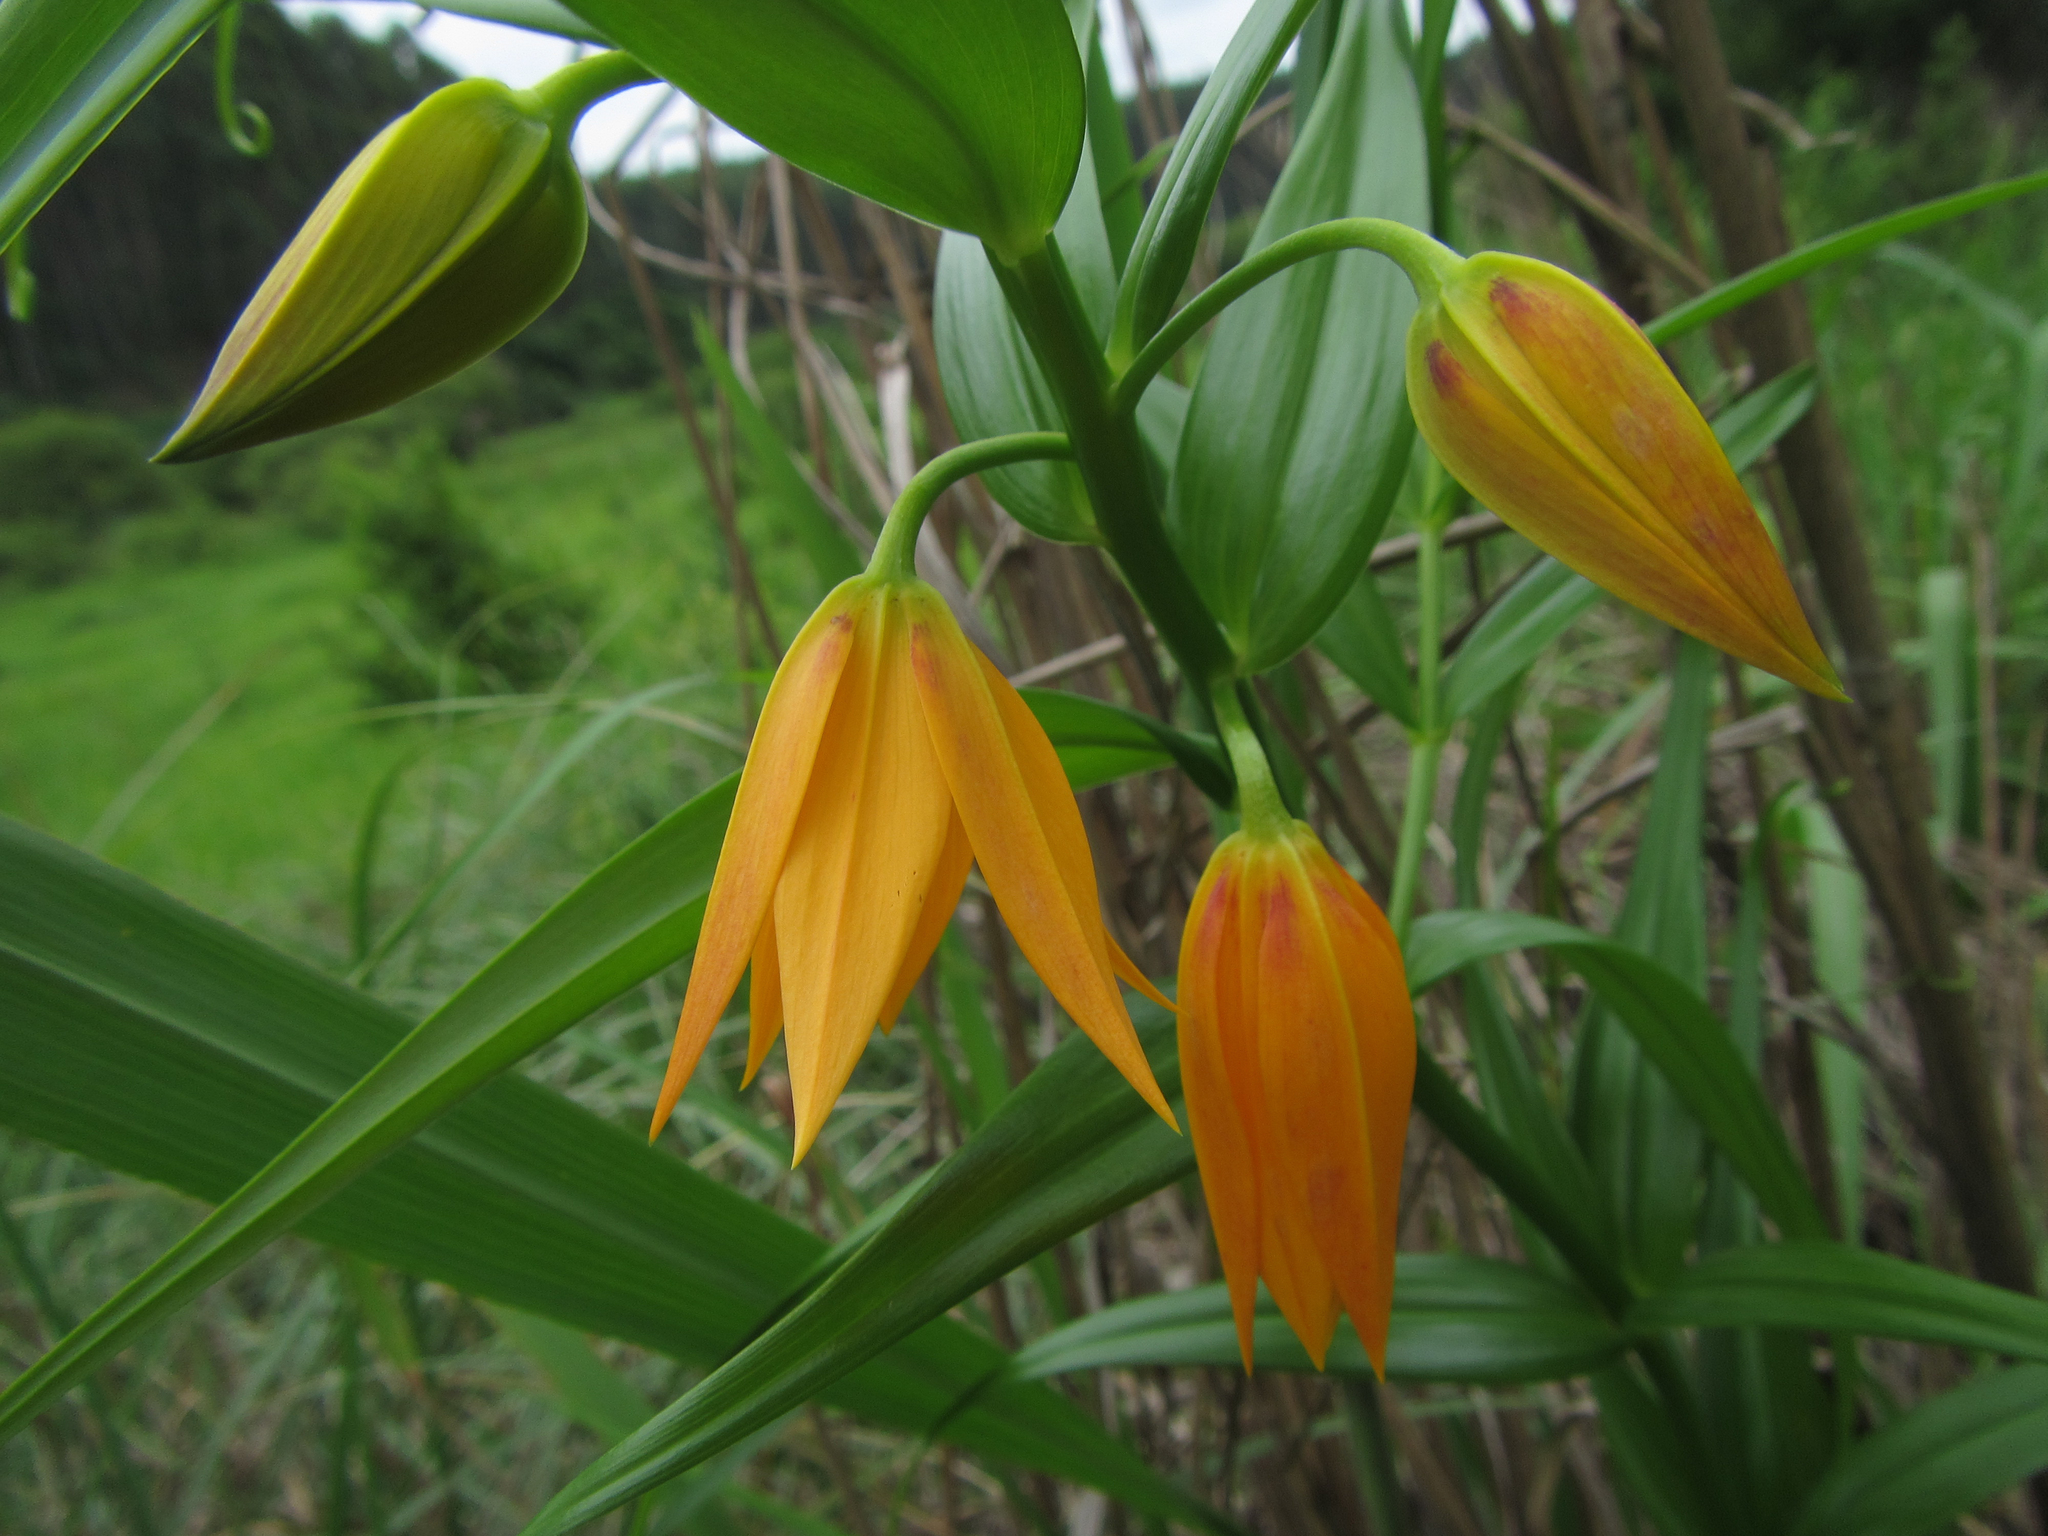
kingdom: Plantae
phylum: Tracheophyta
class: Liliopsida
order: Liliales
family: Colchicaceae
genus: Gloriosa
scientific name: Gloriosa modesta
